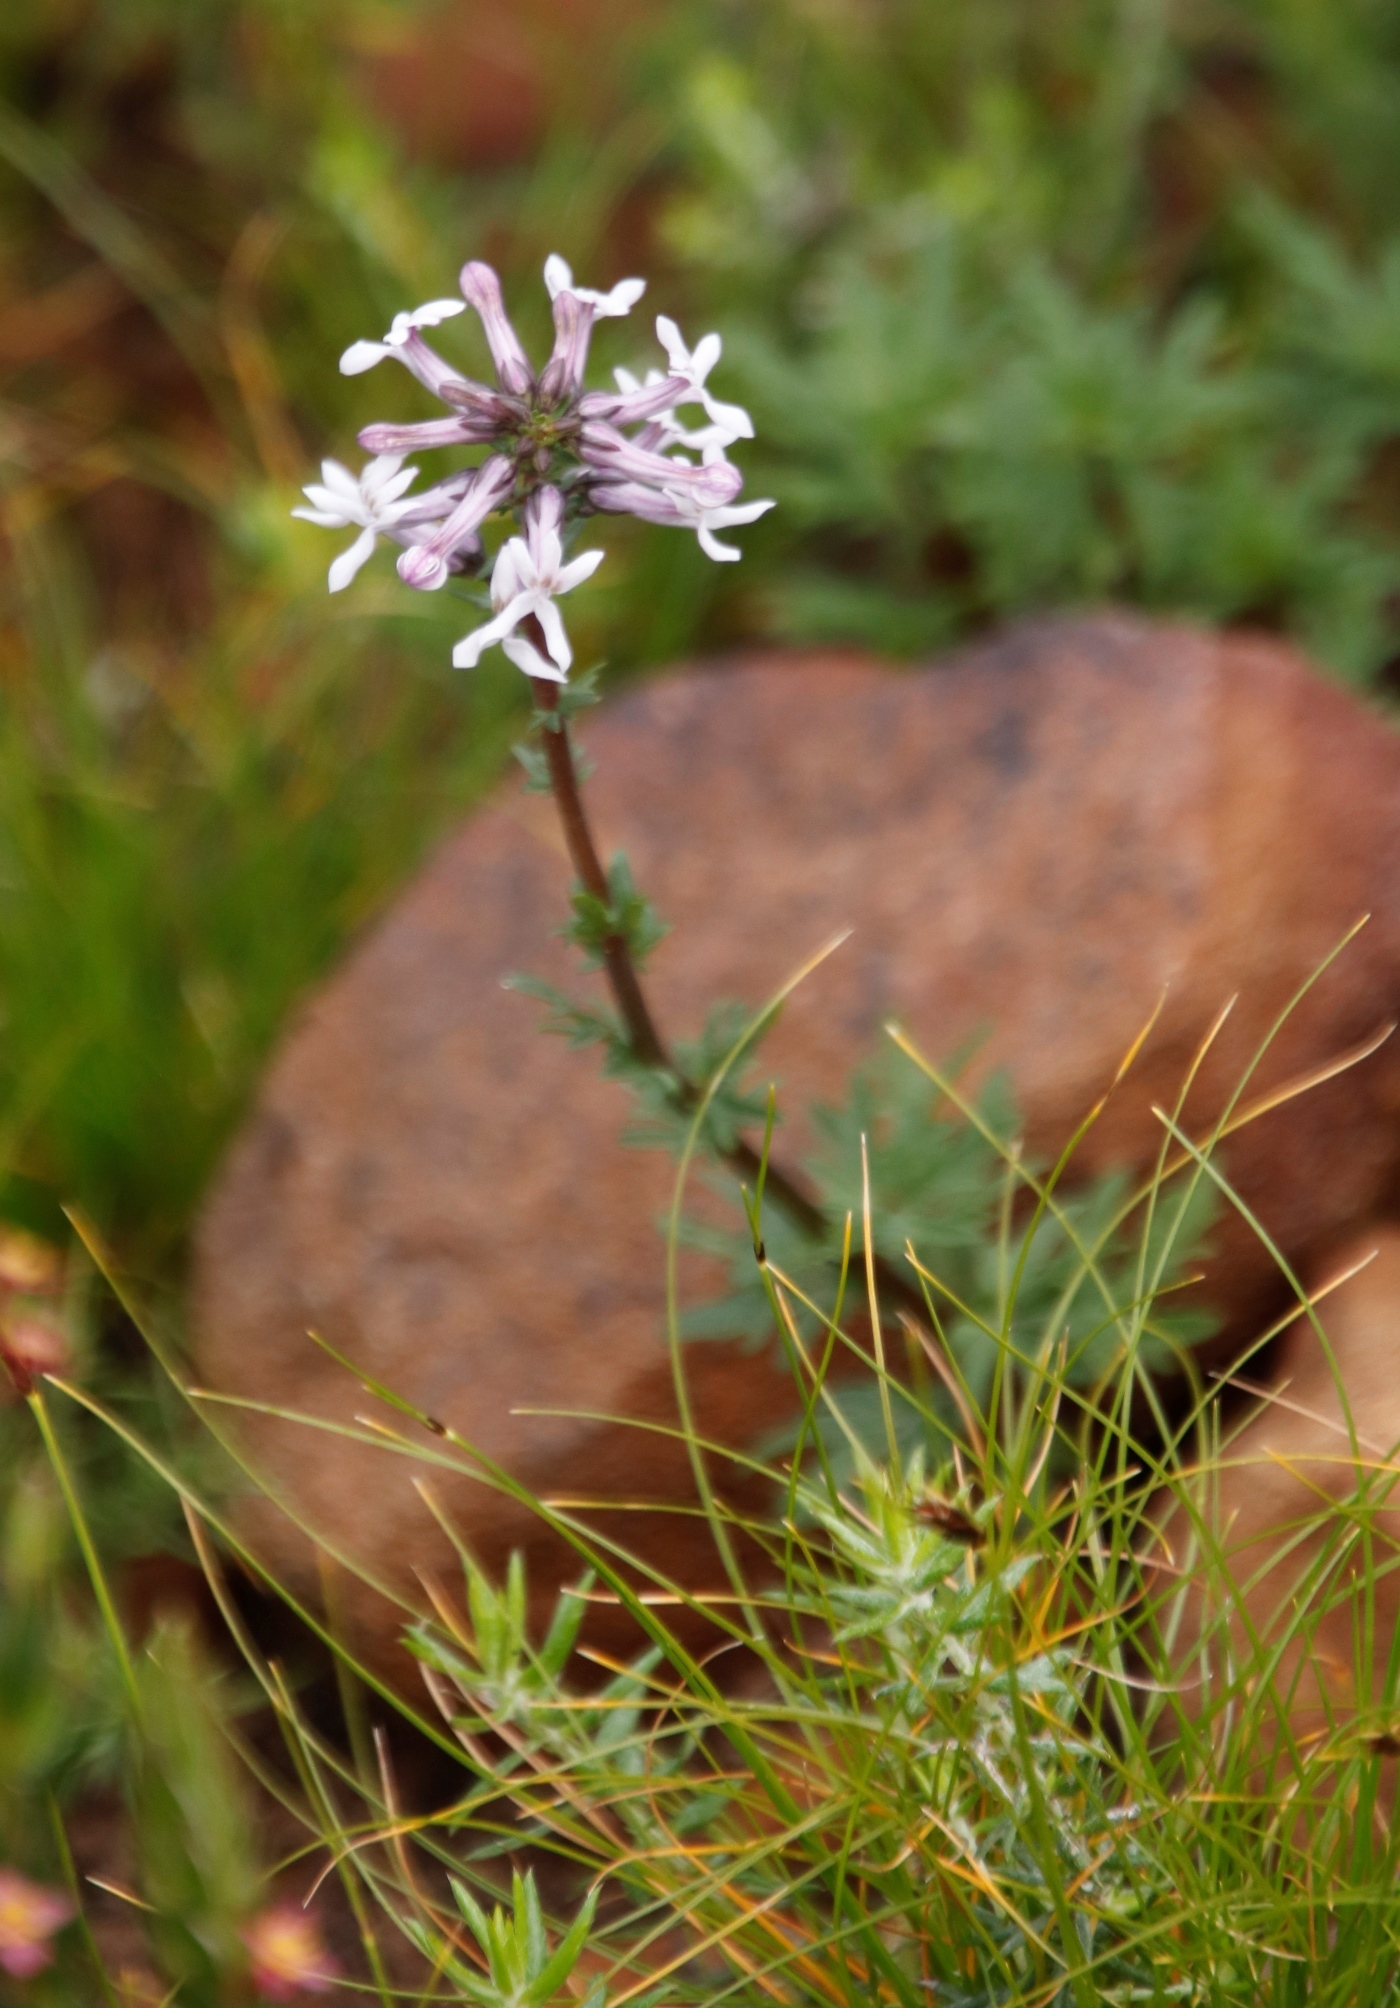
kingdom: Plantae
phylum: Tracheophyta
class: Magnoliopsida
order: Asterales
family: Campanulaceae
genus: Cyphia
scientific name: Cyphia bulbosa
